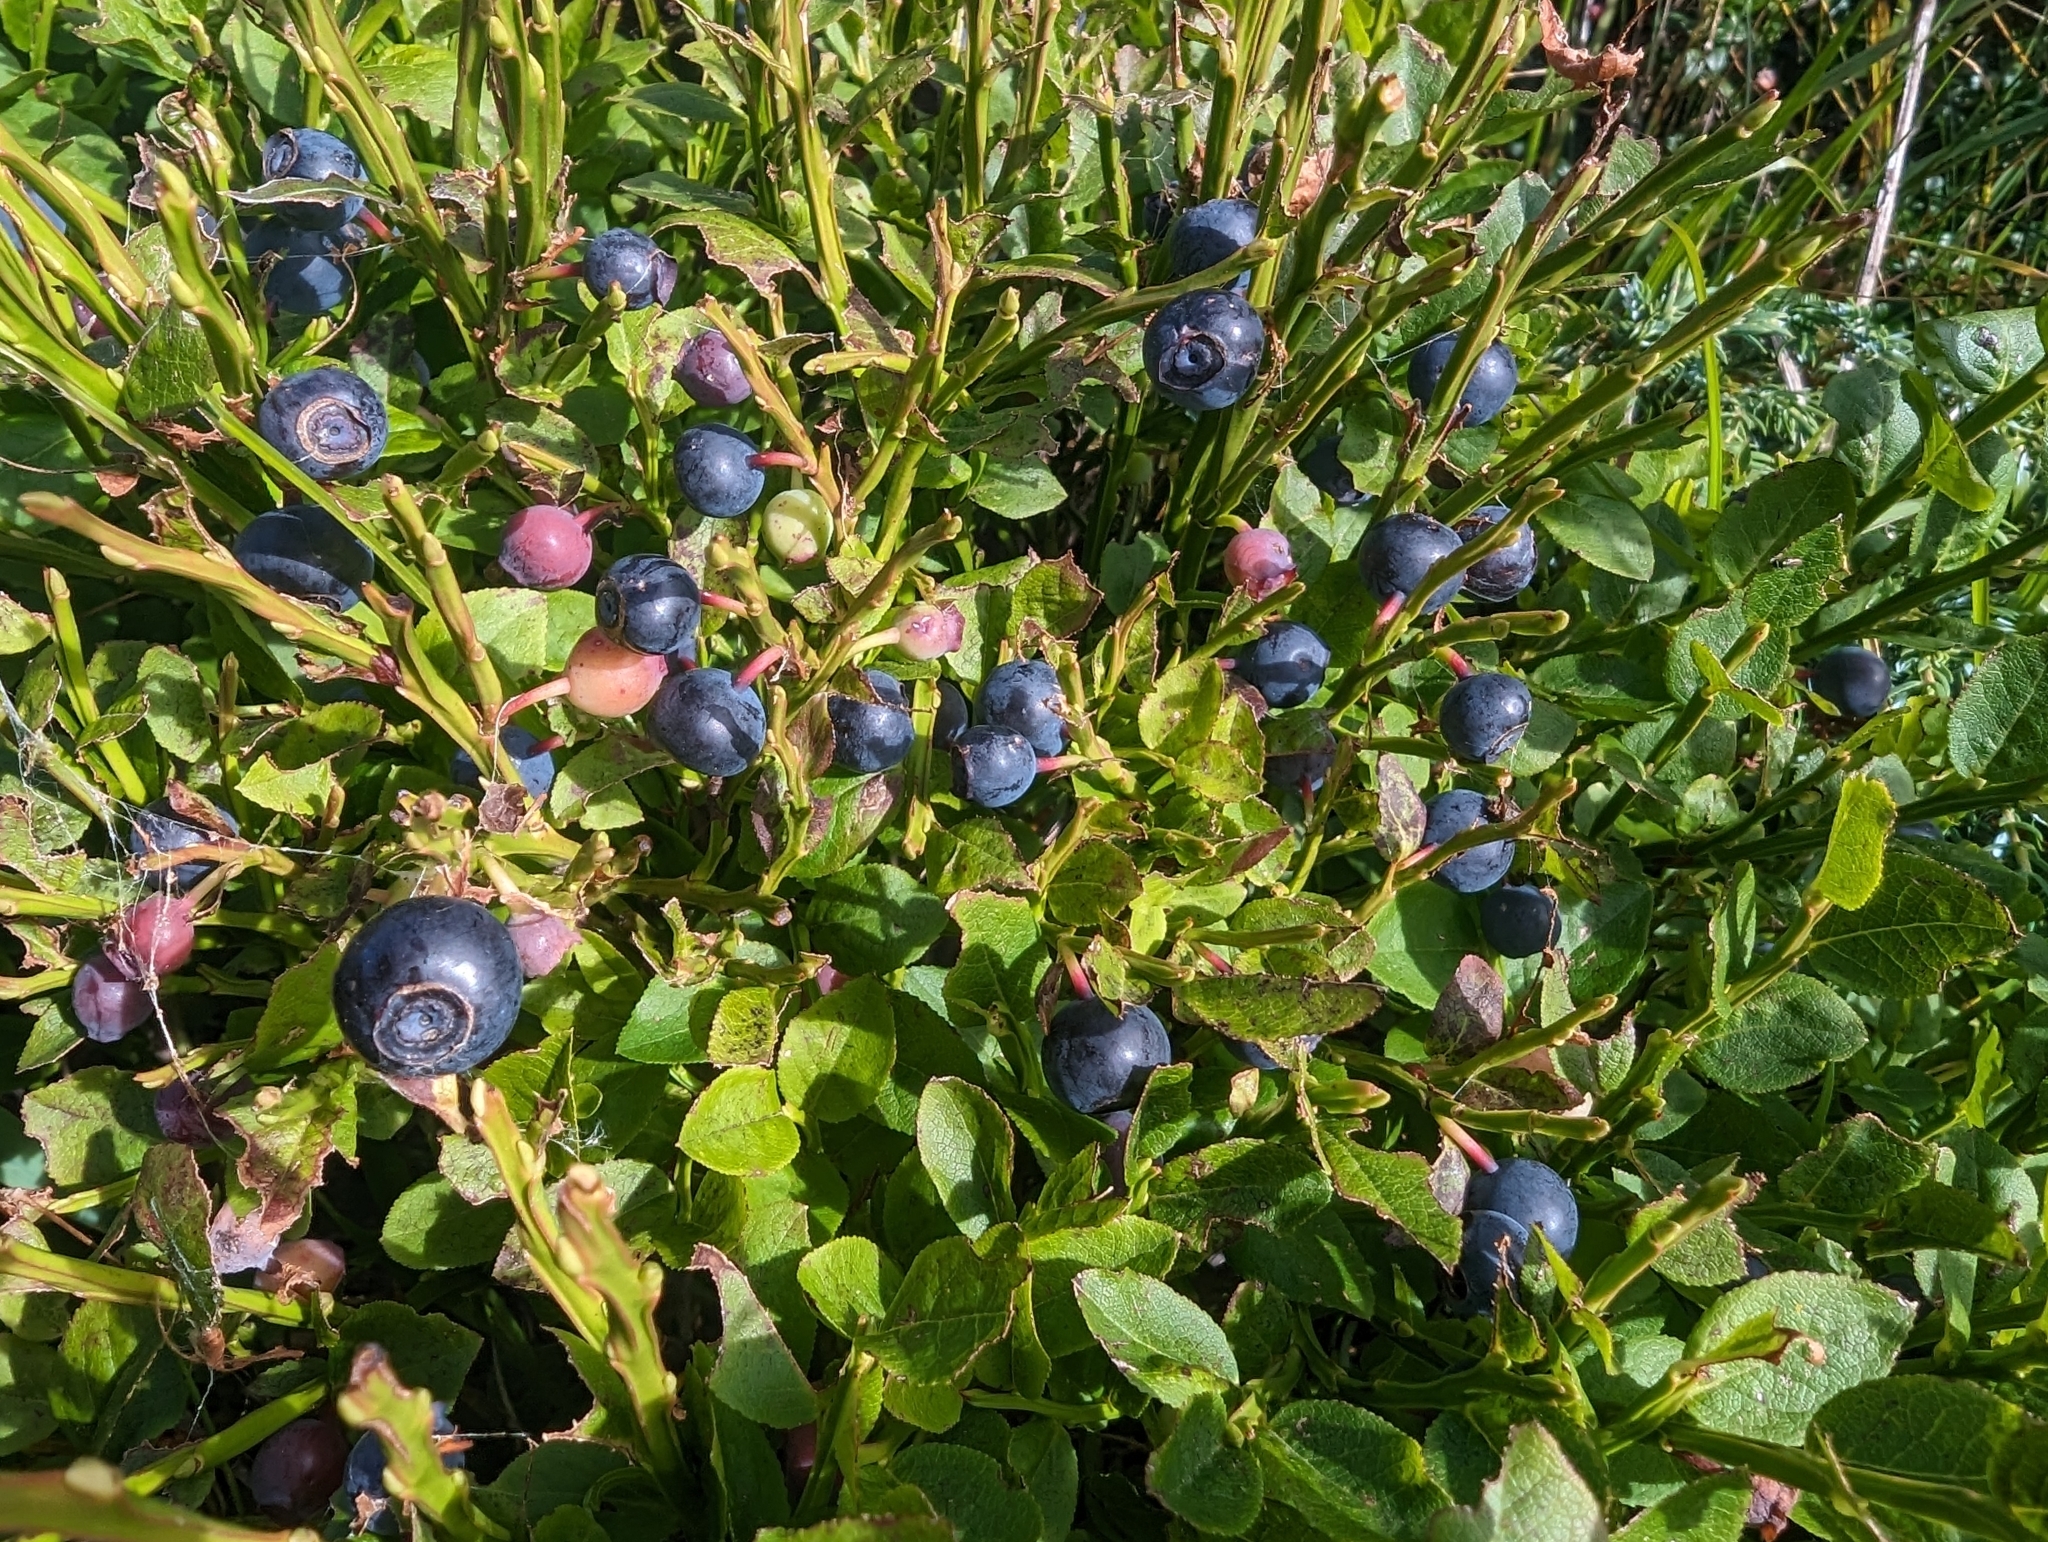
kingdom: Plantae
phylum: Tracheophyta
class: Magnoliopsida
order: Ericales
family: Ericaceae
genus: Vaccinium
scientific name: Vaccinium myrtillus
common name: Bilberry
